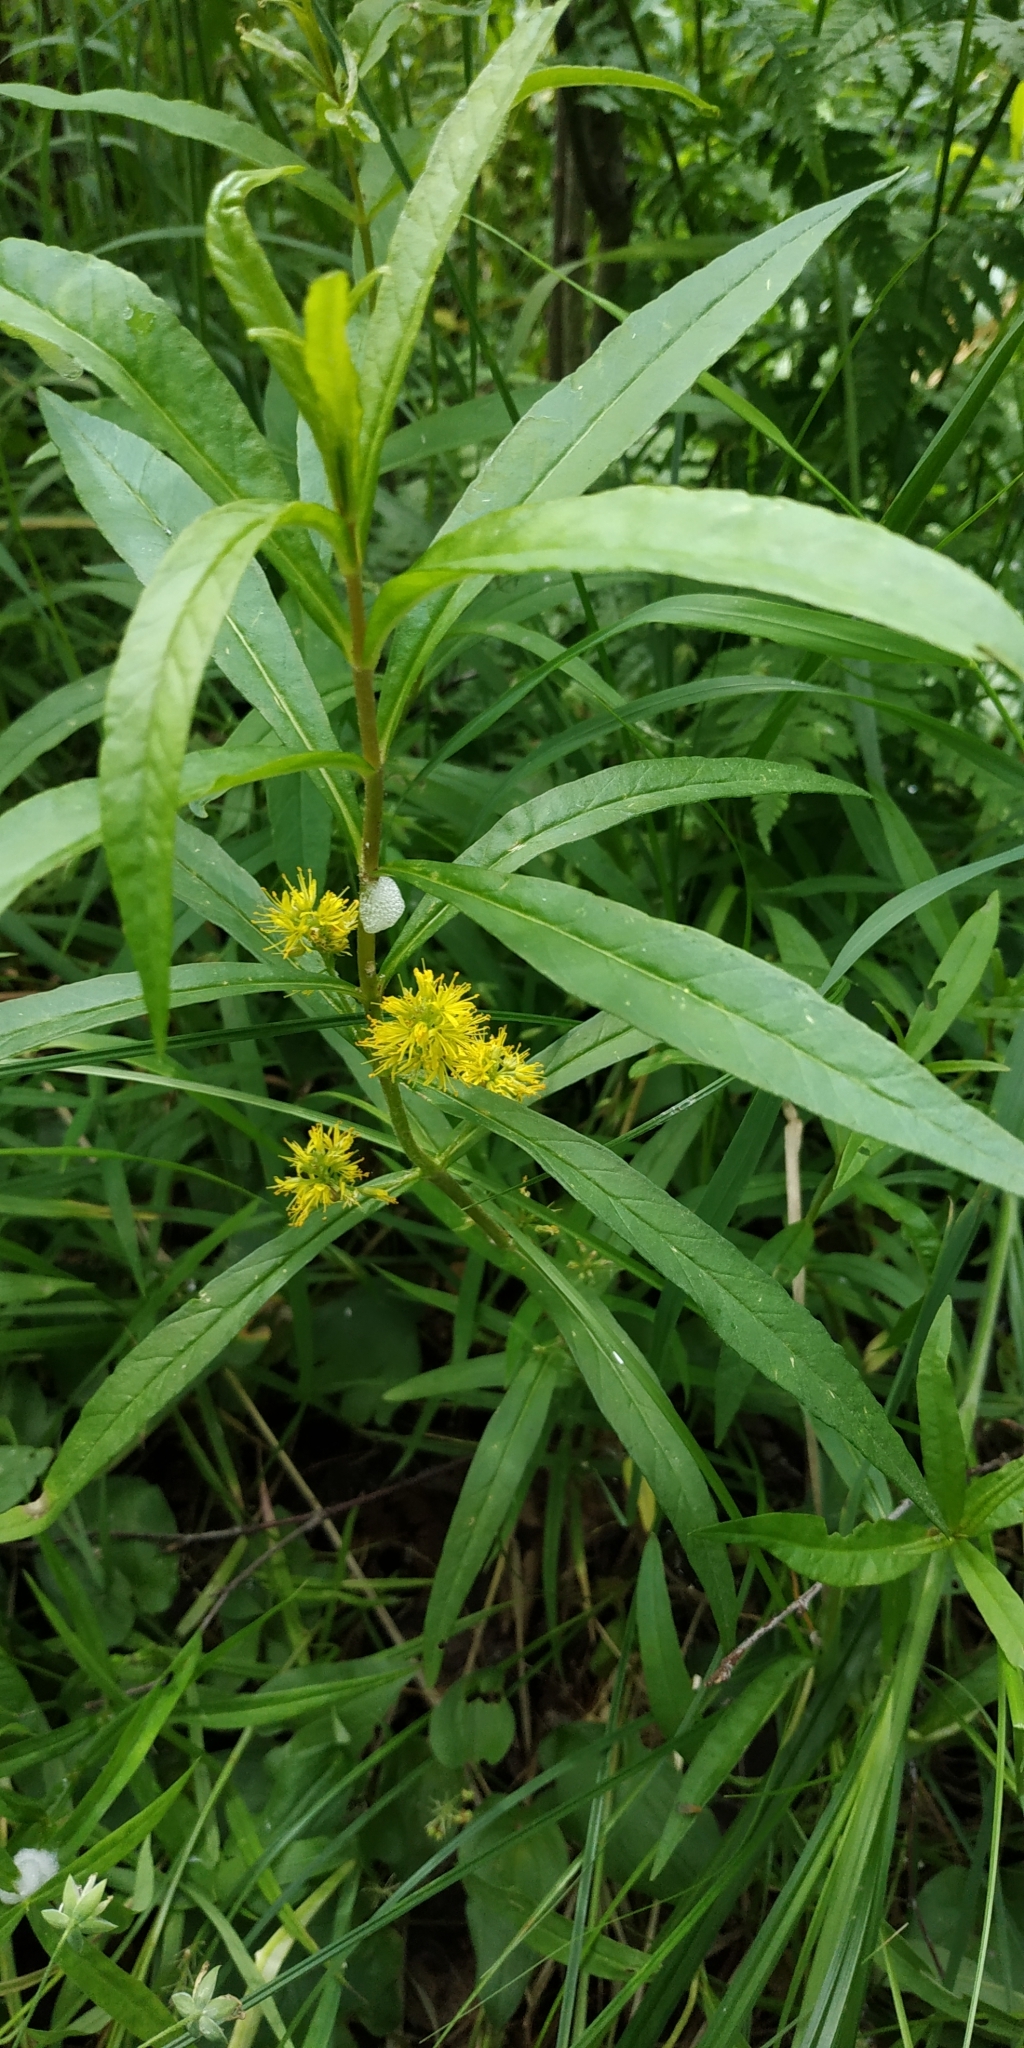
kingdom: Plantae
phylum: Tracheophyta
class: Magnoliopsida
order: Ericales
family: Primulaceae
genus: Lysimachia
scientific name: Lysimachia thyrsiflora
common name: Tufted loosestrife
